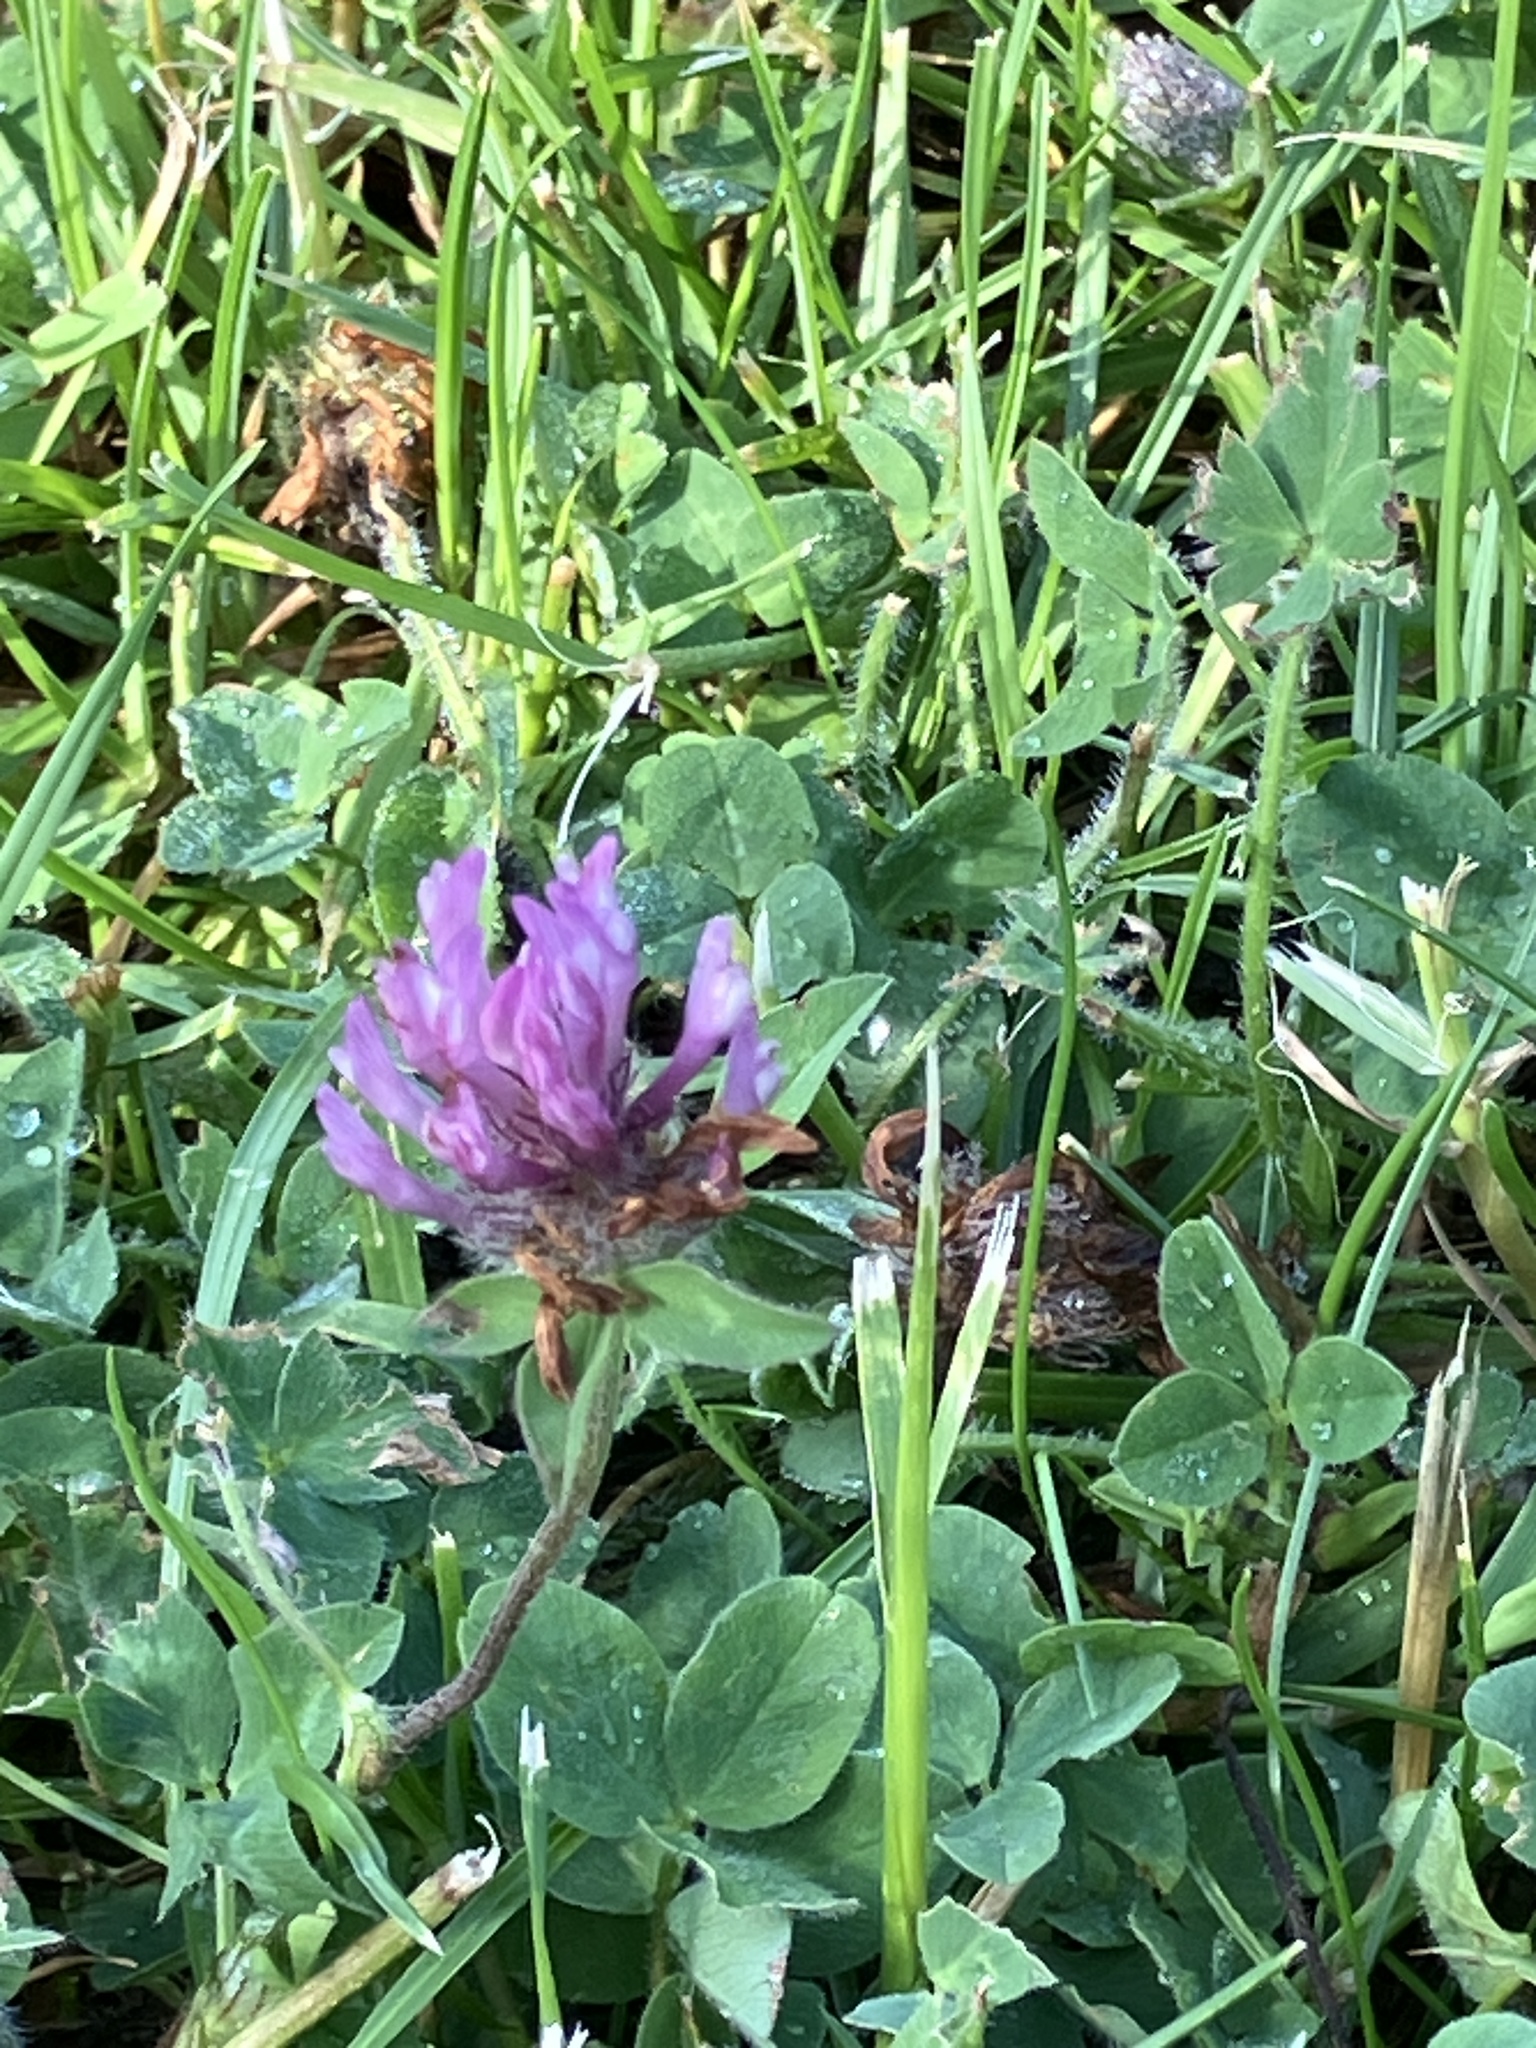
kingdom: Plantae
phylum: Tracheophyta
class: Magnoliopsida
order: Fabales
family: Fabaceae
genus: Trifolium
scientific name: Trifolium pratense
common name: Red clover
